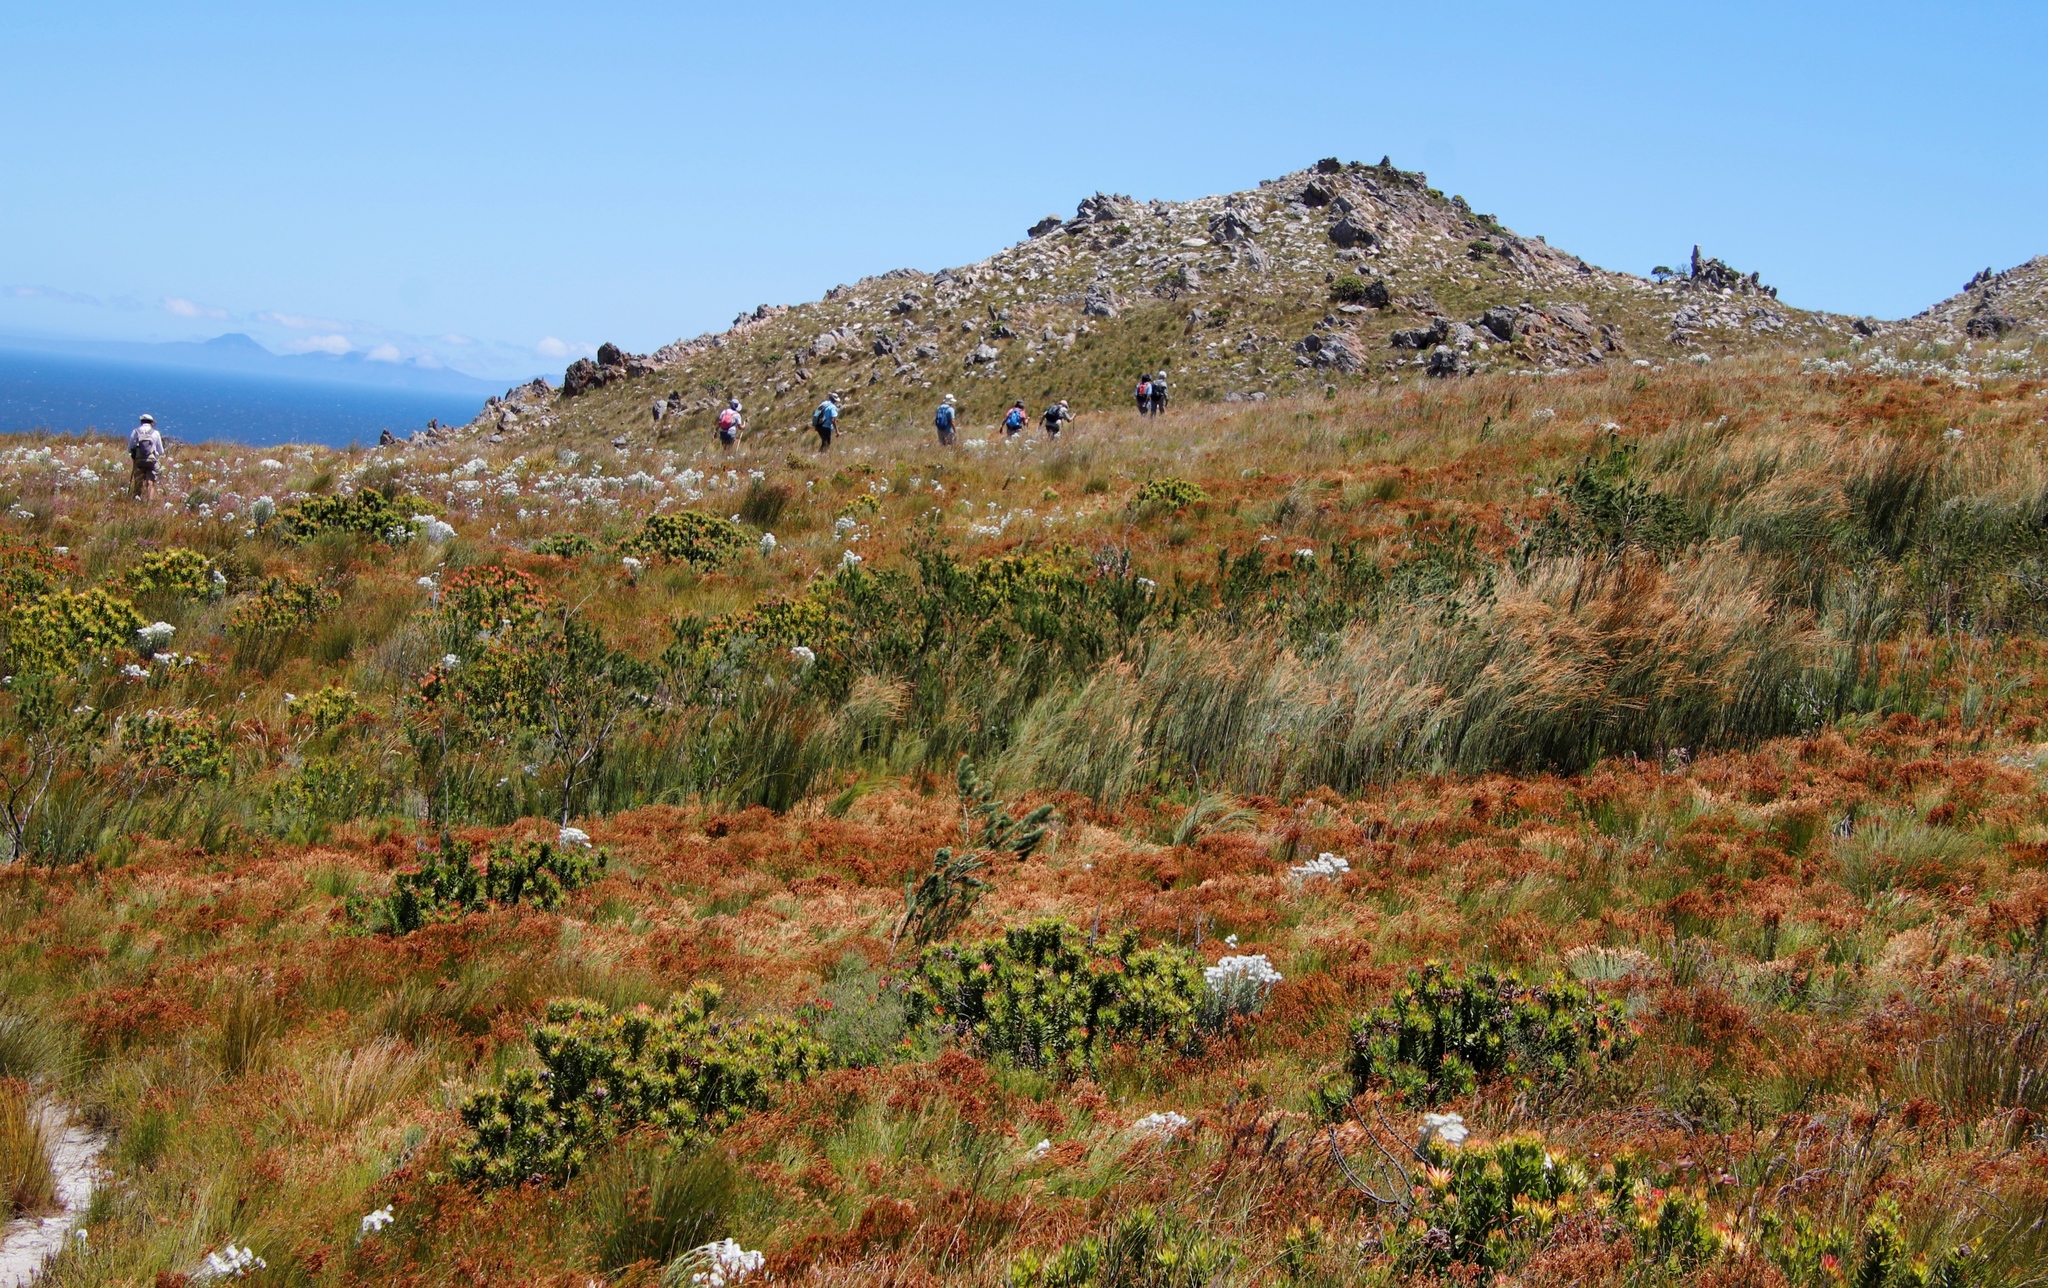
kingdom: Plantae
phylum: Tracheophyta
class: Liliopsida
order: Poales
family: Restionaceae
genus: Restio
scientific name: Restio dispar
